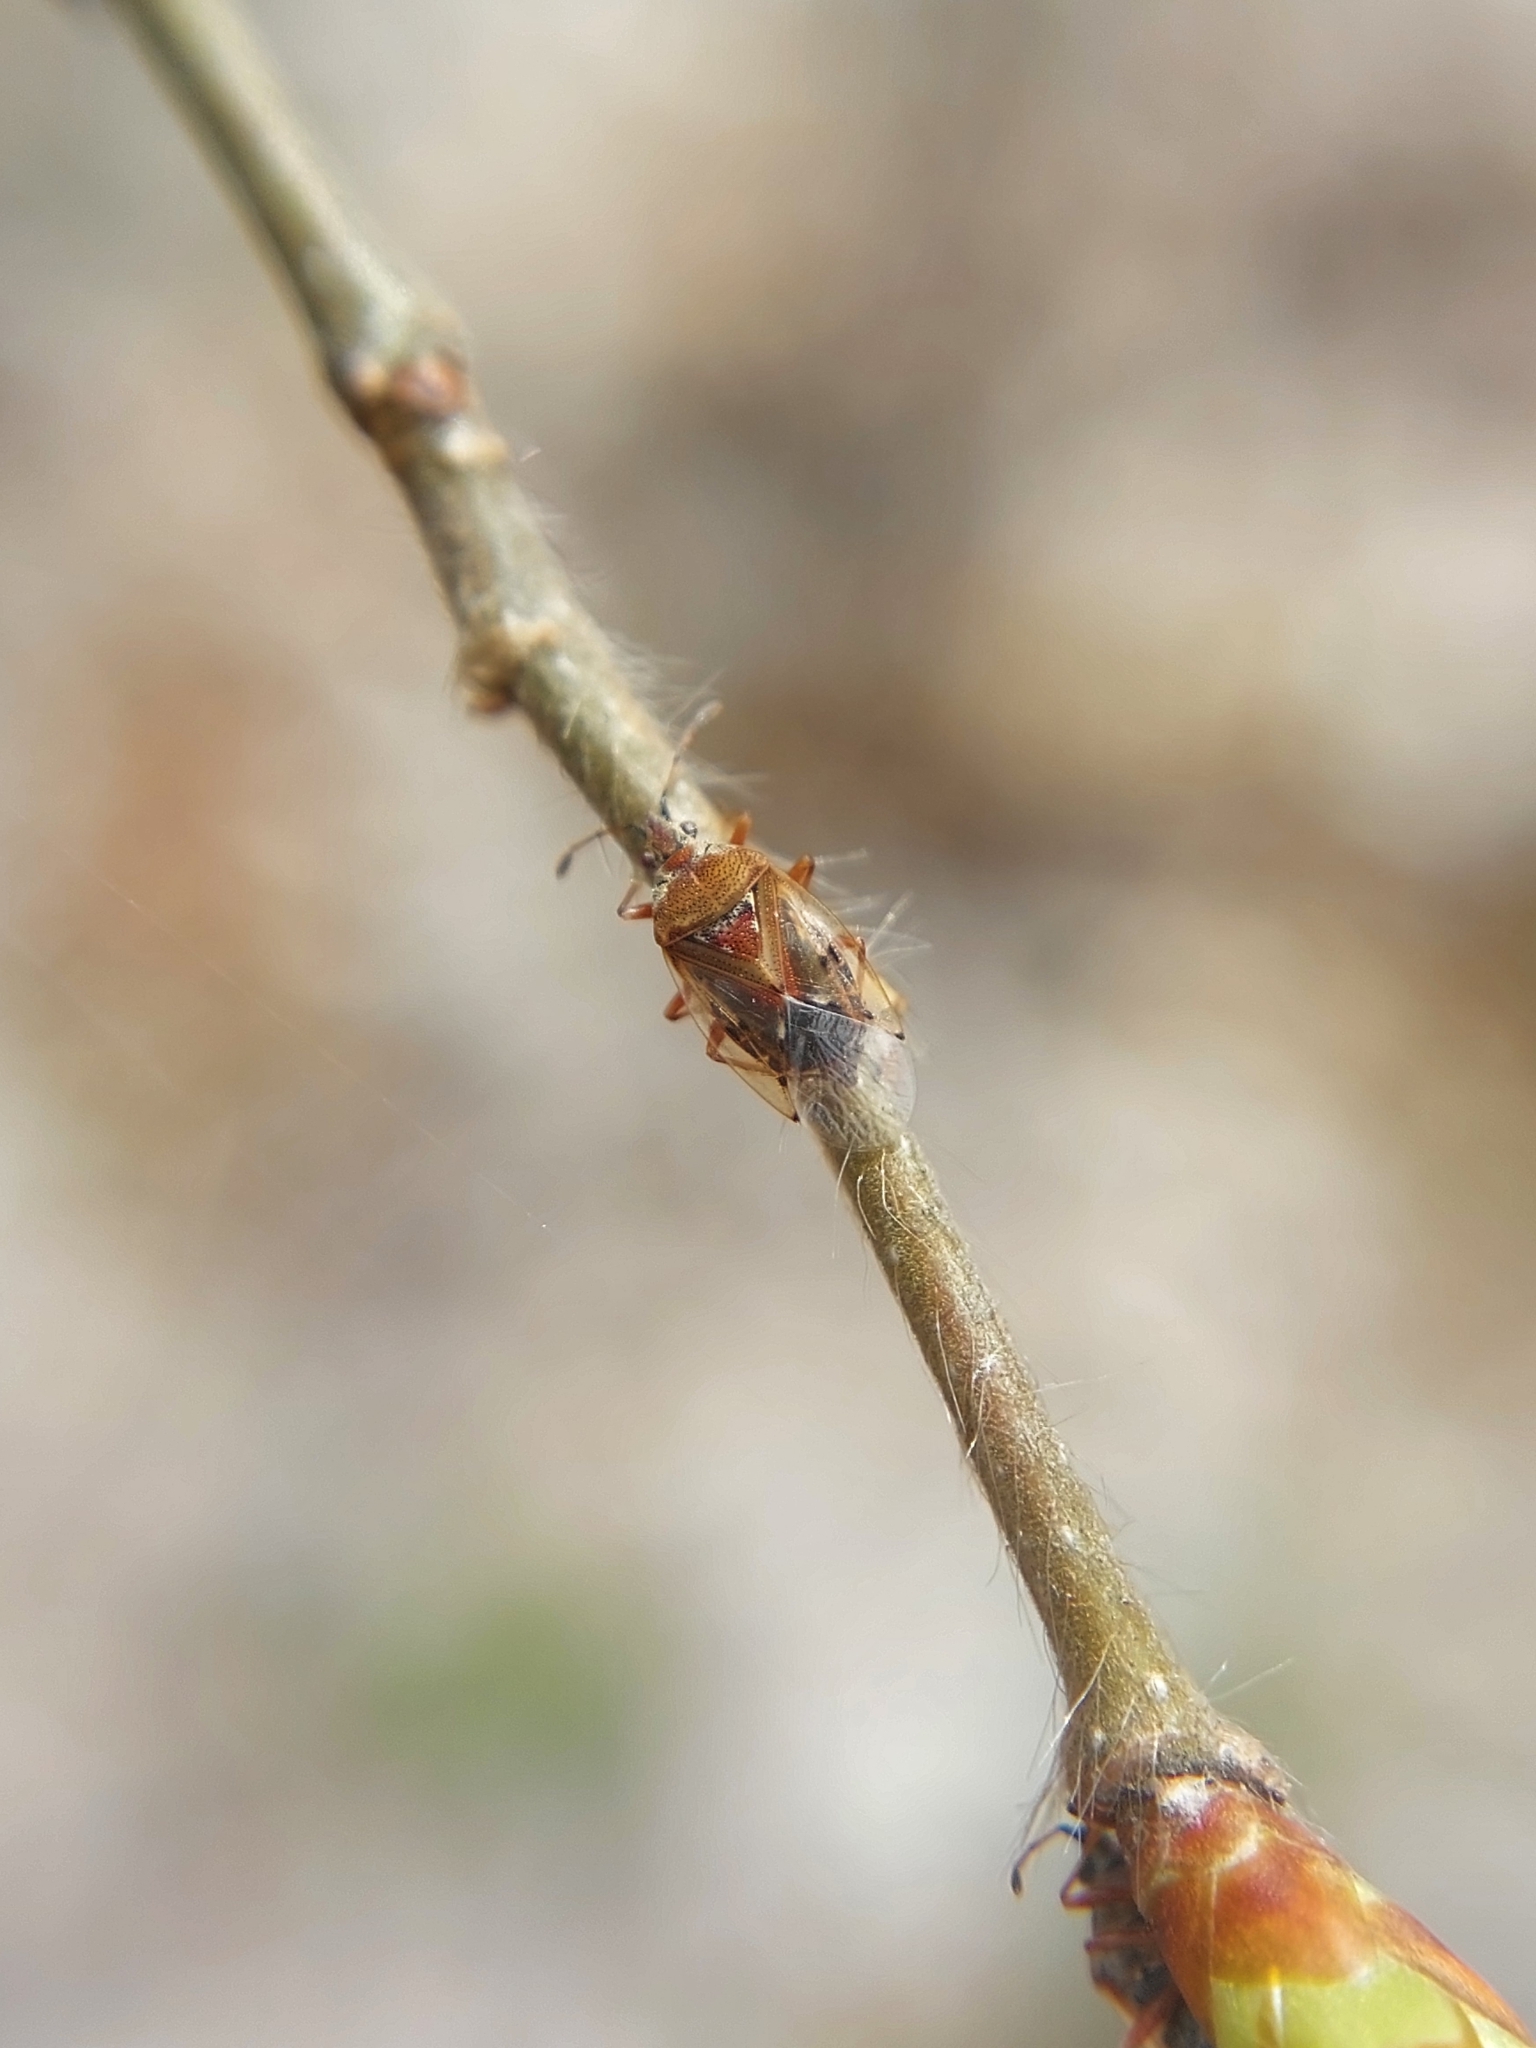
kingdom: Animalia
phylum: Arthropoda
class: Insecta
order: Hemiptera
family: Lygaeidae
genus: Kleidocerys
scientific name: Kleidocerys resedae
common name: Birch catkin bug
